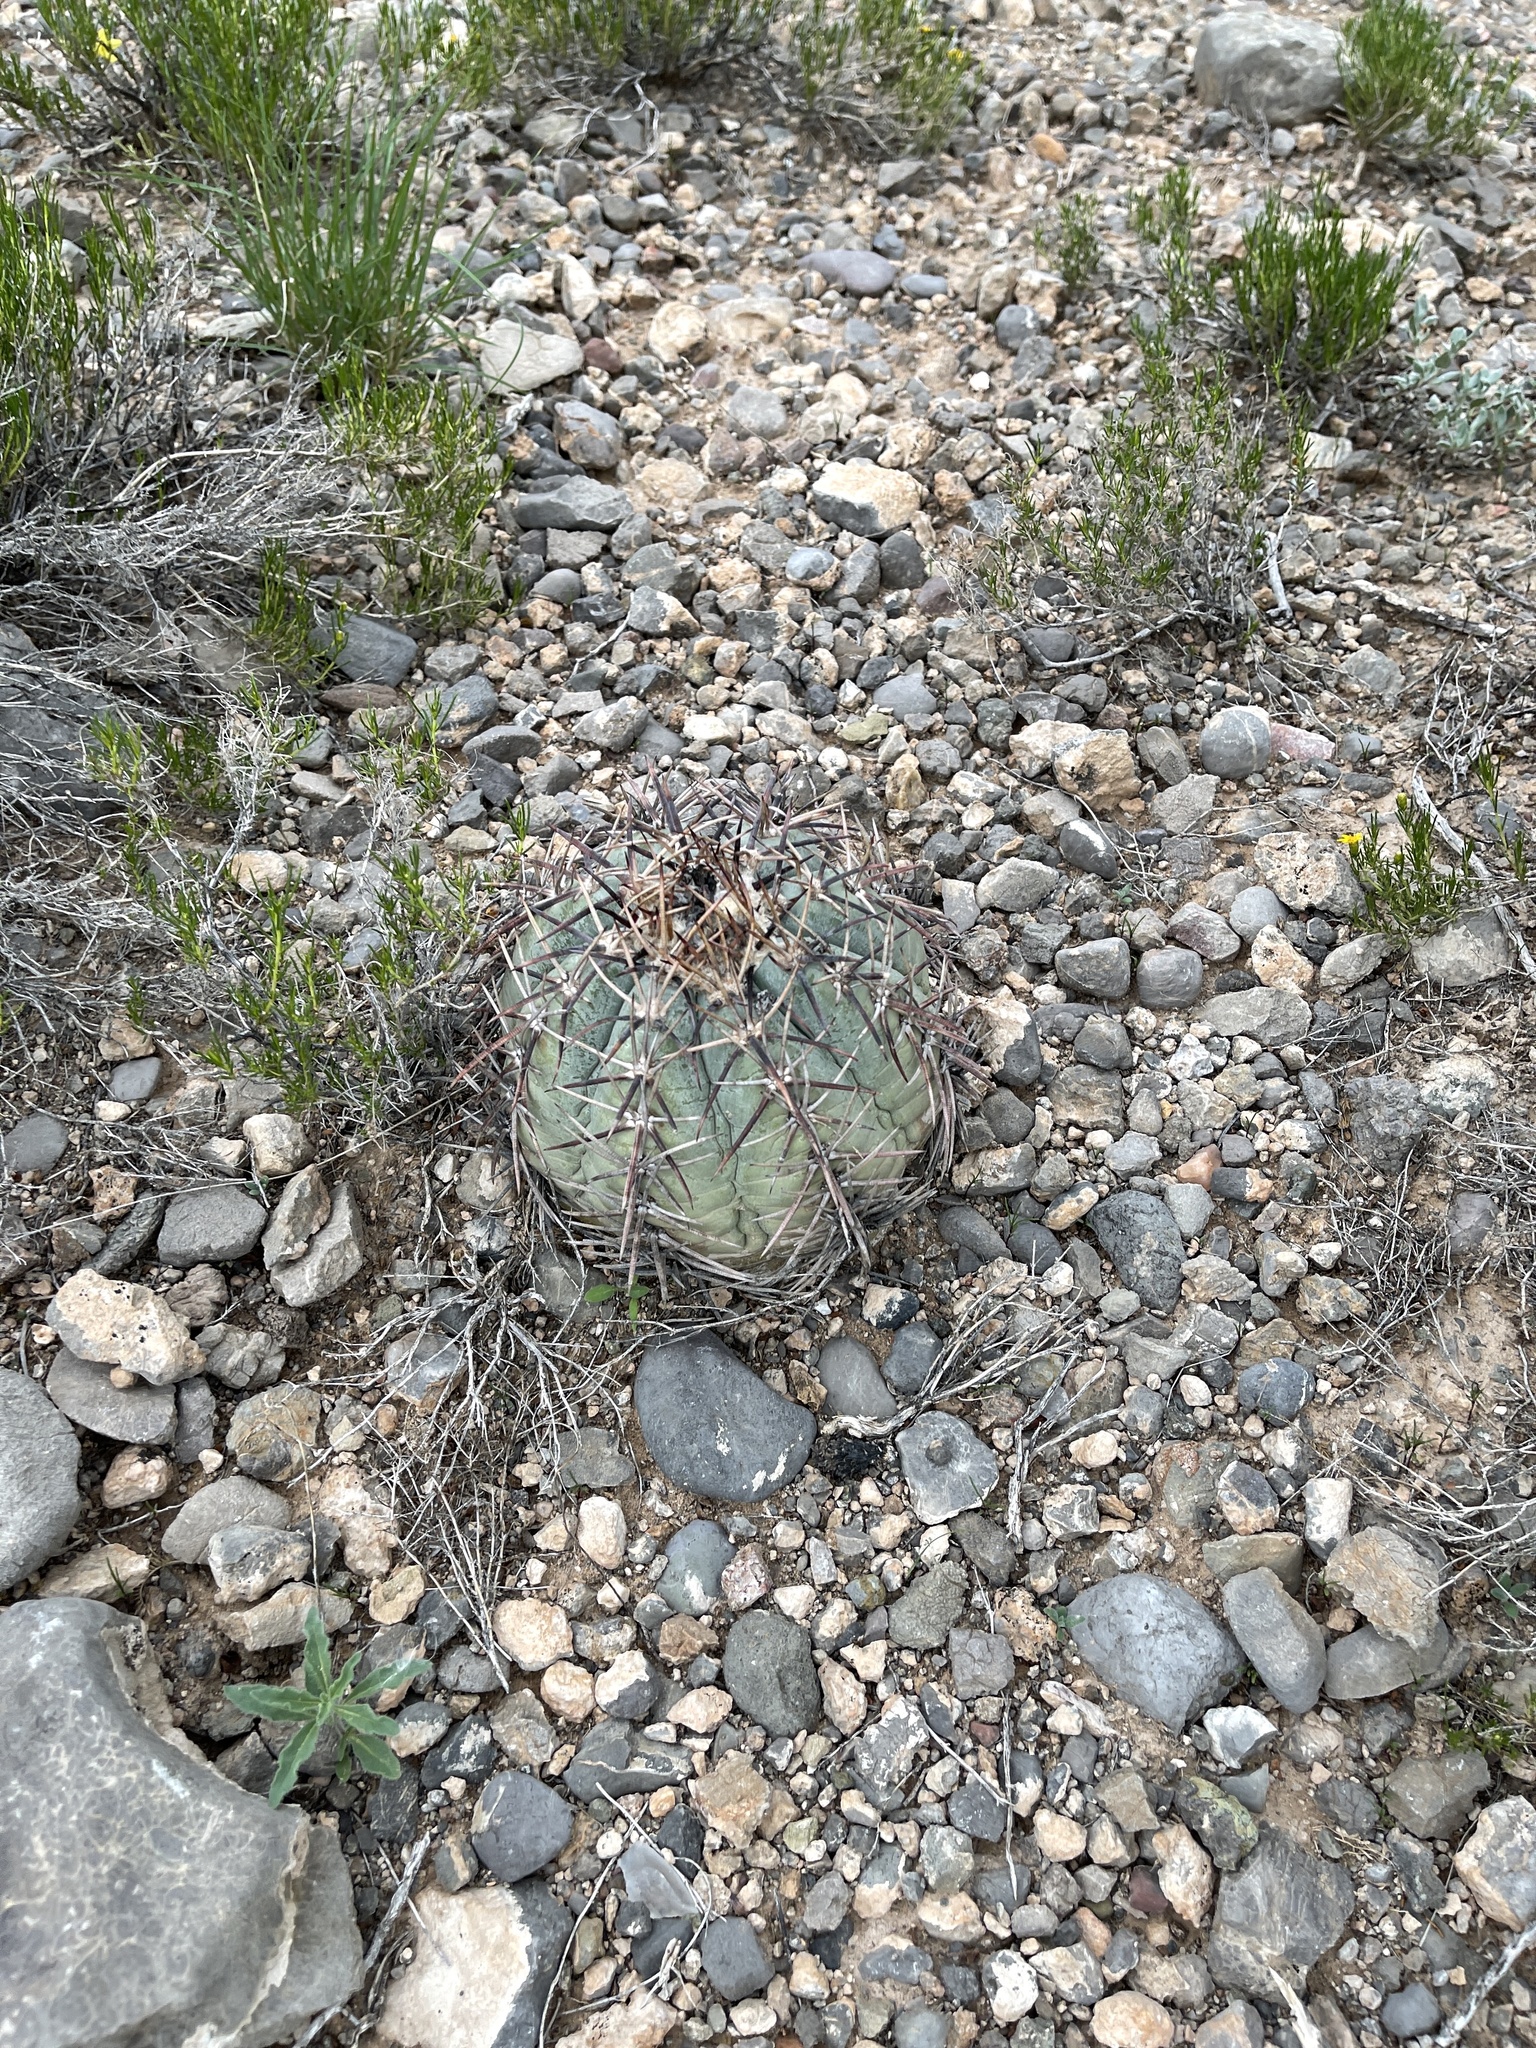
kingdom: Plantae
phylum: Tracheophyta
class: Magnoliopsida
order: Caryophyllales
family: Cactaceae
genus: Echinocactus
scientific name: Echinocactus horizonthalonius
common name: Devilshead
